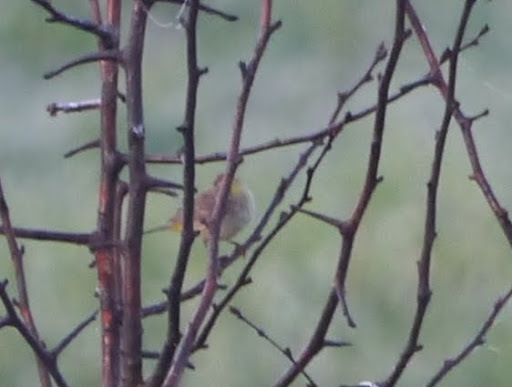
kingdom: Animalia
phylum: Chordata
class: Aves
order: Passeriformes
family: Parulidae
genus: Setophaga
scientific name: Setophaga palmarum
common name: Palm warbler
